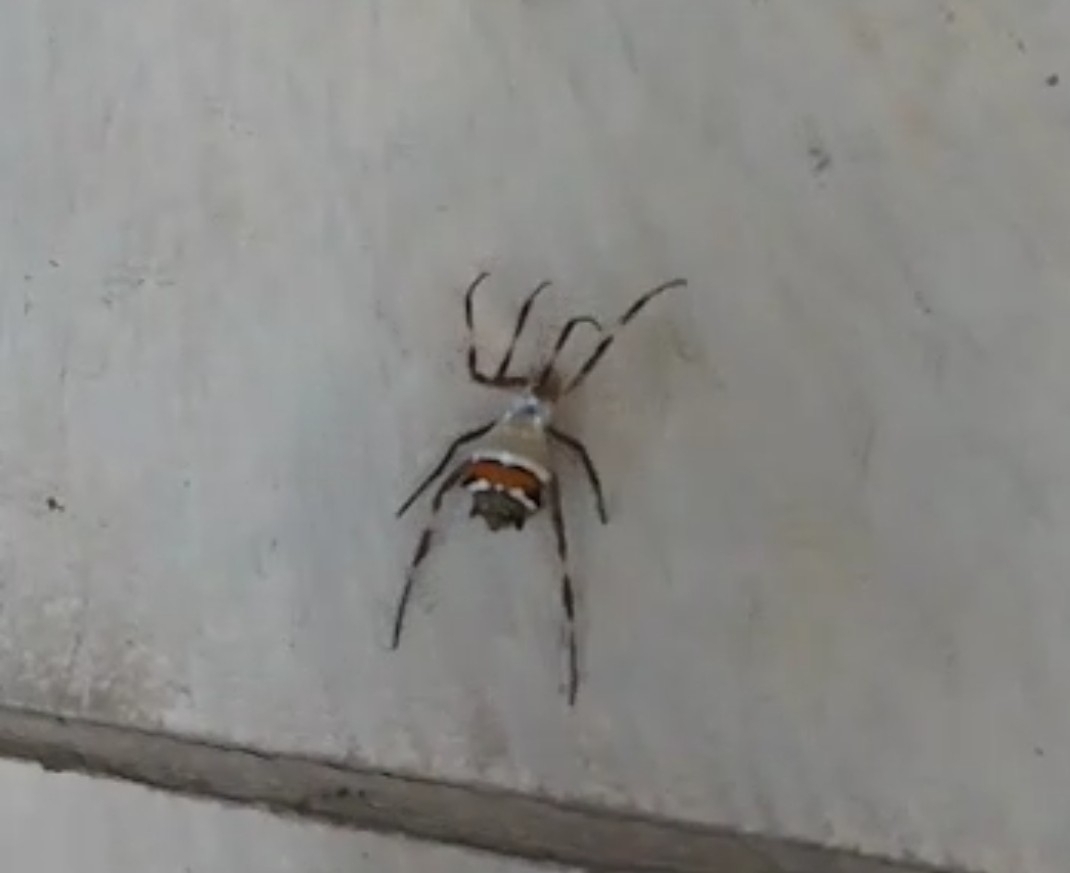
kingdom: Animalia
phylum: Arthropoda
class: Arachnida
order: Araneae
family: Araneidae
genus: Argiope
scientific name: Argiope argentata
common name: Orb weavers
